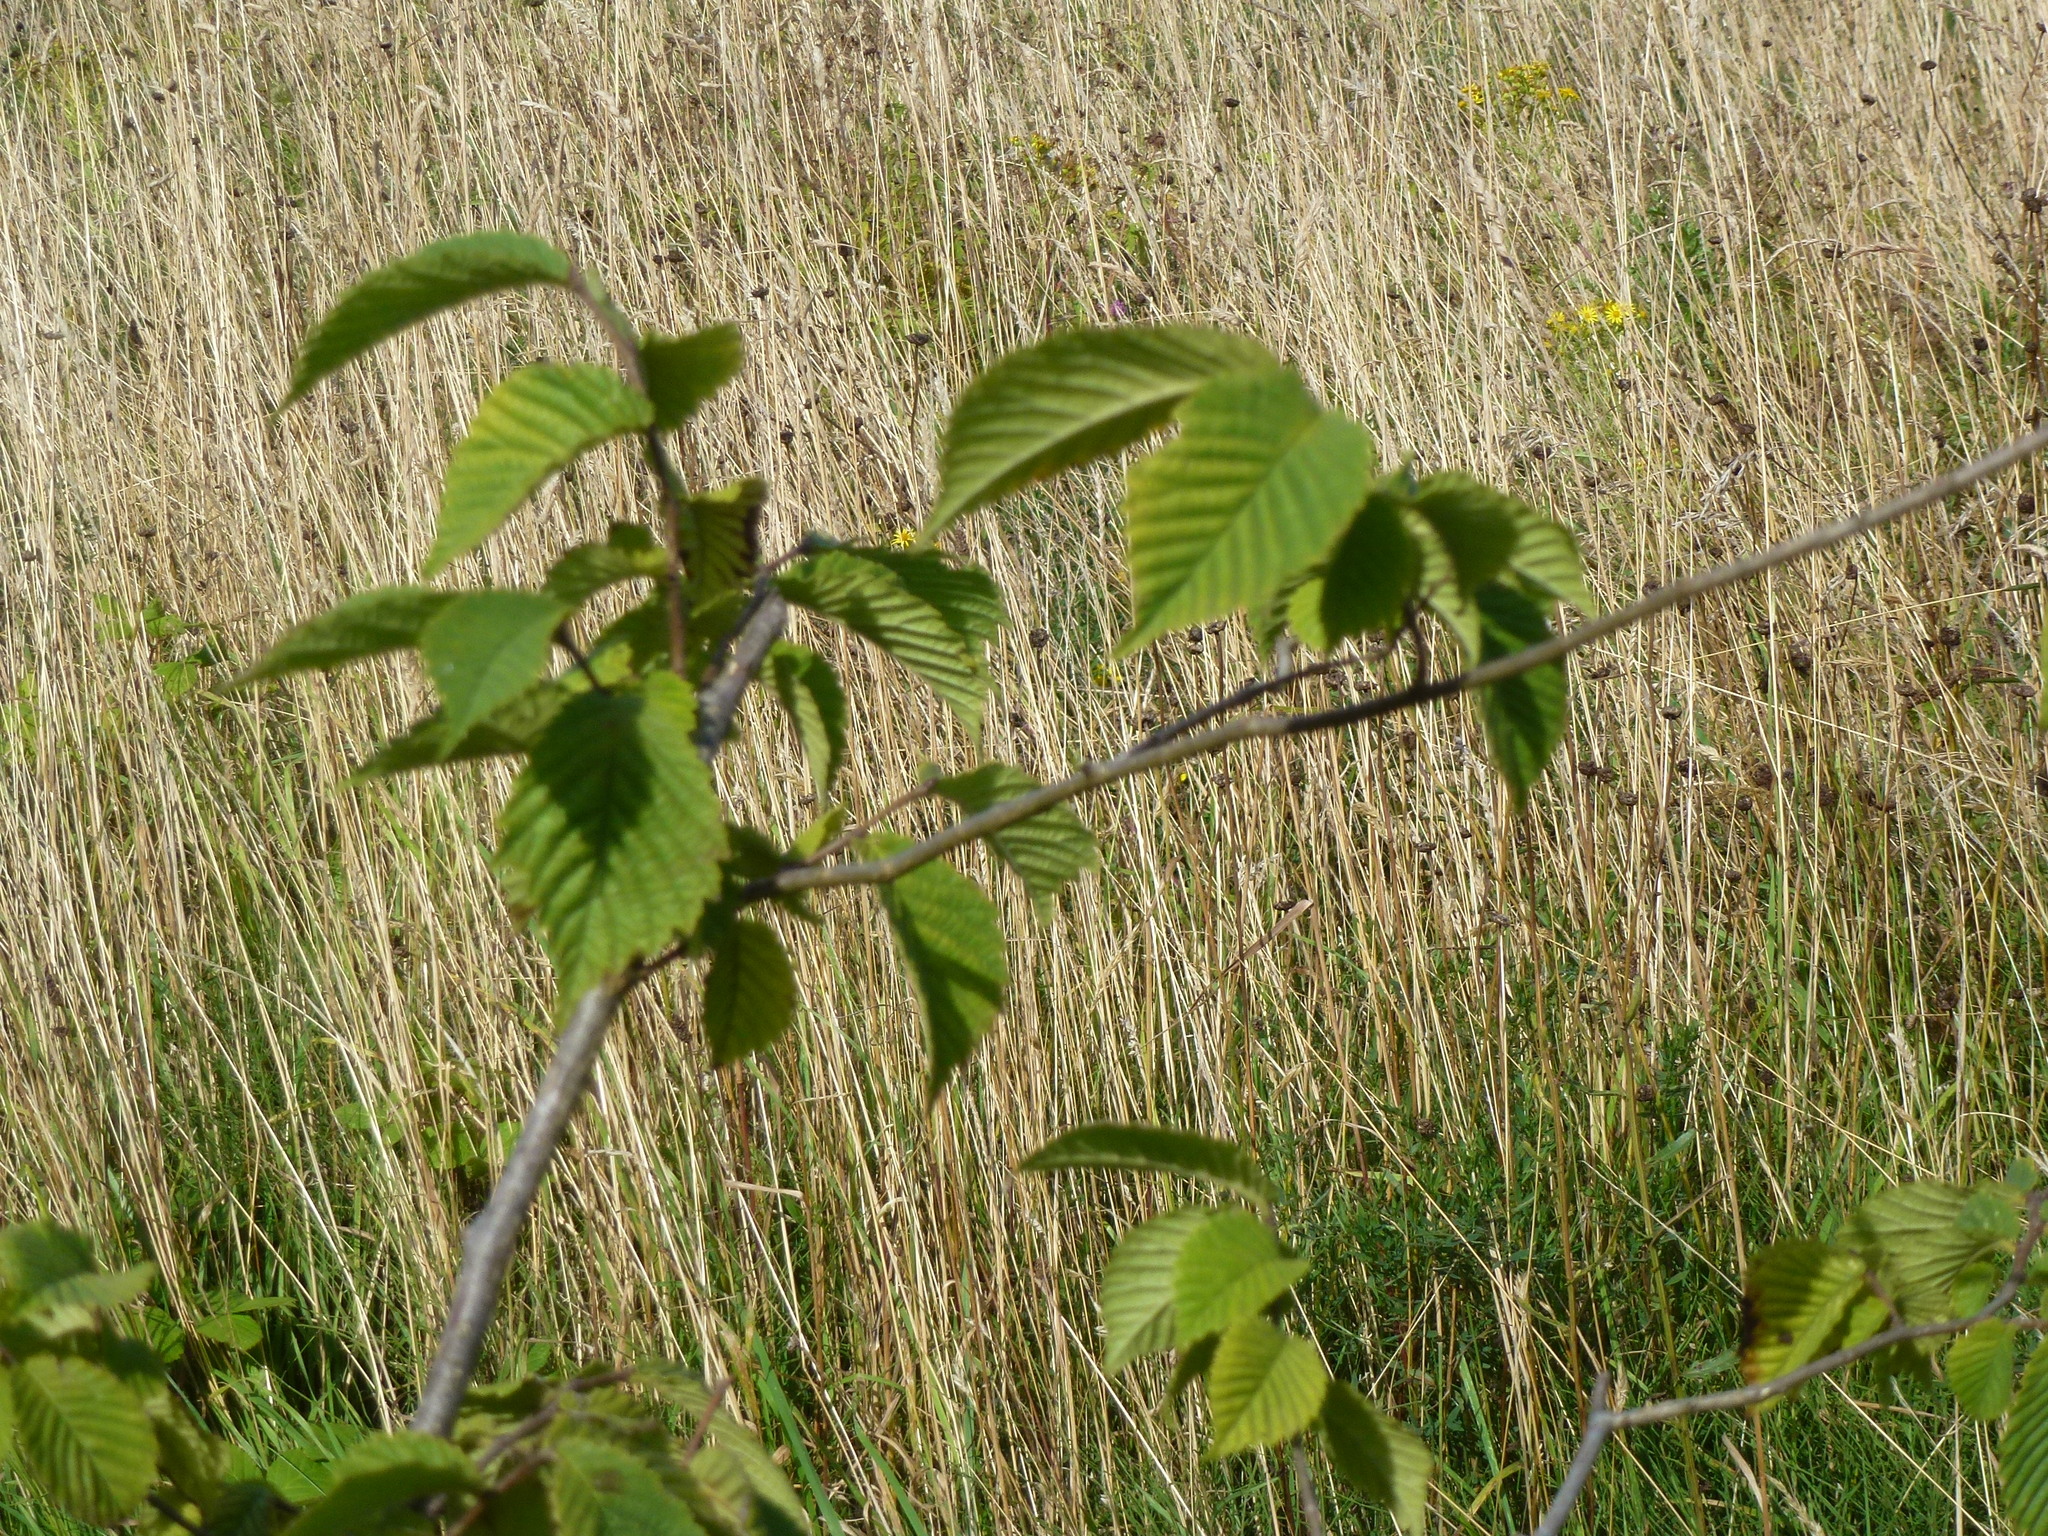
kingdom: Plantae
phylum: Tracheophyta
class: Magnoliopsida
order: Fagales
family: Betulaceae
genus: Carpinus
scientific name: Carpinus betulus
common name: Hornbeam
